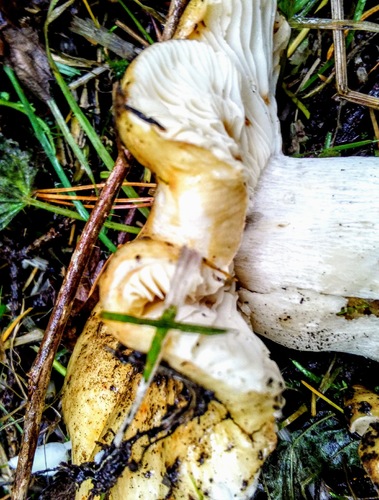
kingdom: Fungi
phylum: Basidiomycota
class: Agaricomycetes
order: Russulales
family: Russulaceae
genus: Russula
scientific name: Russula cerolens
